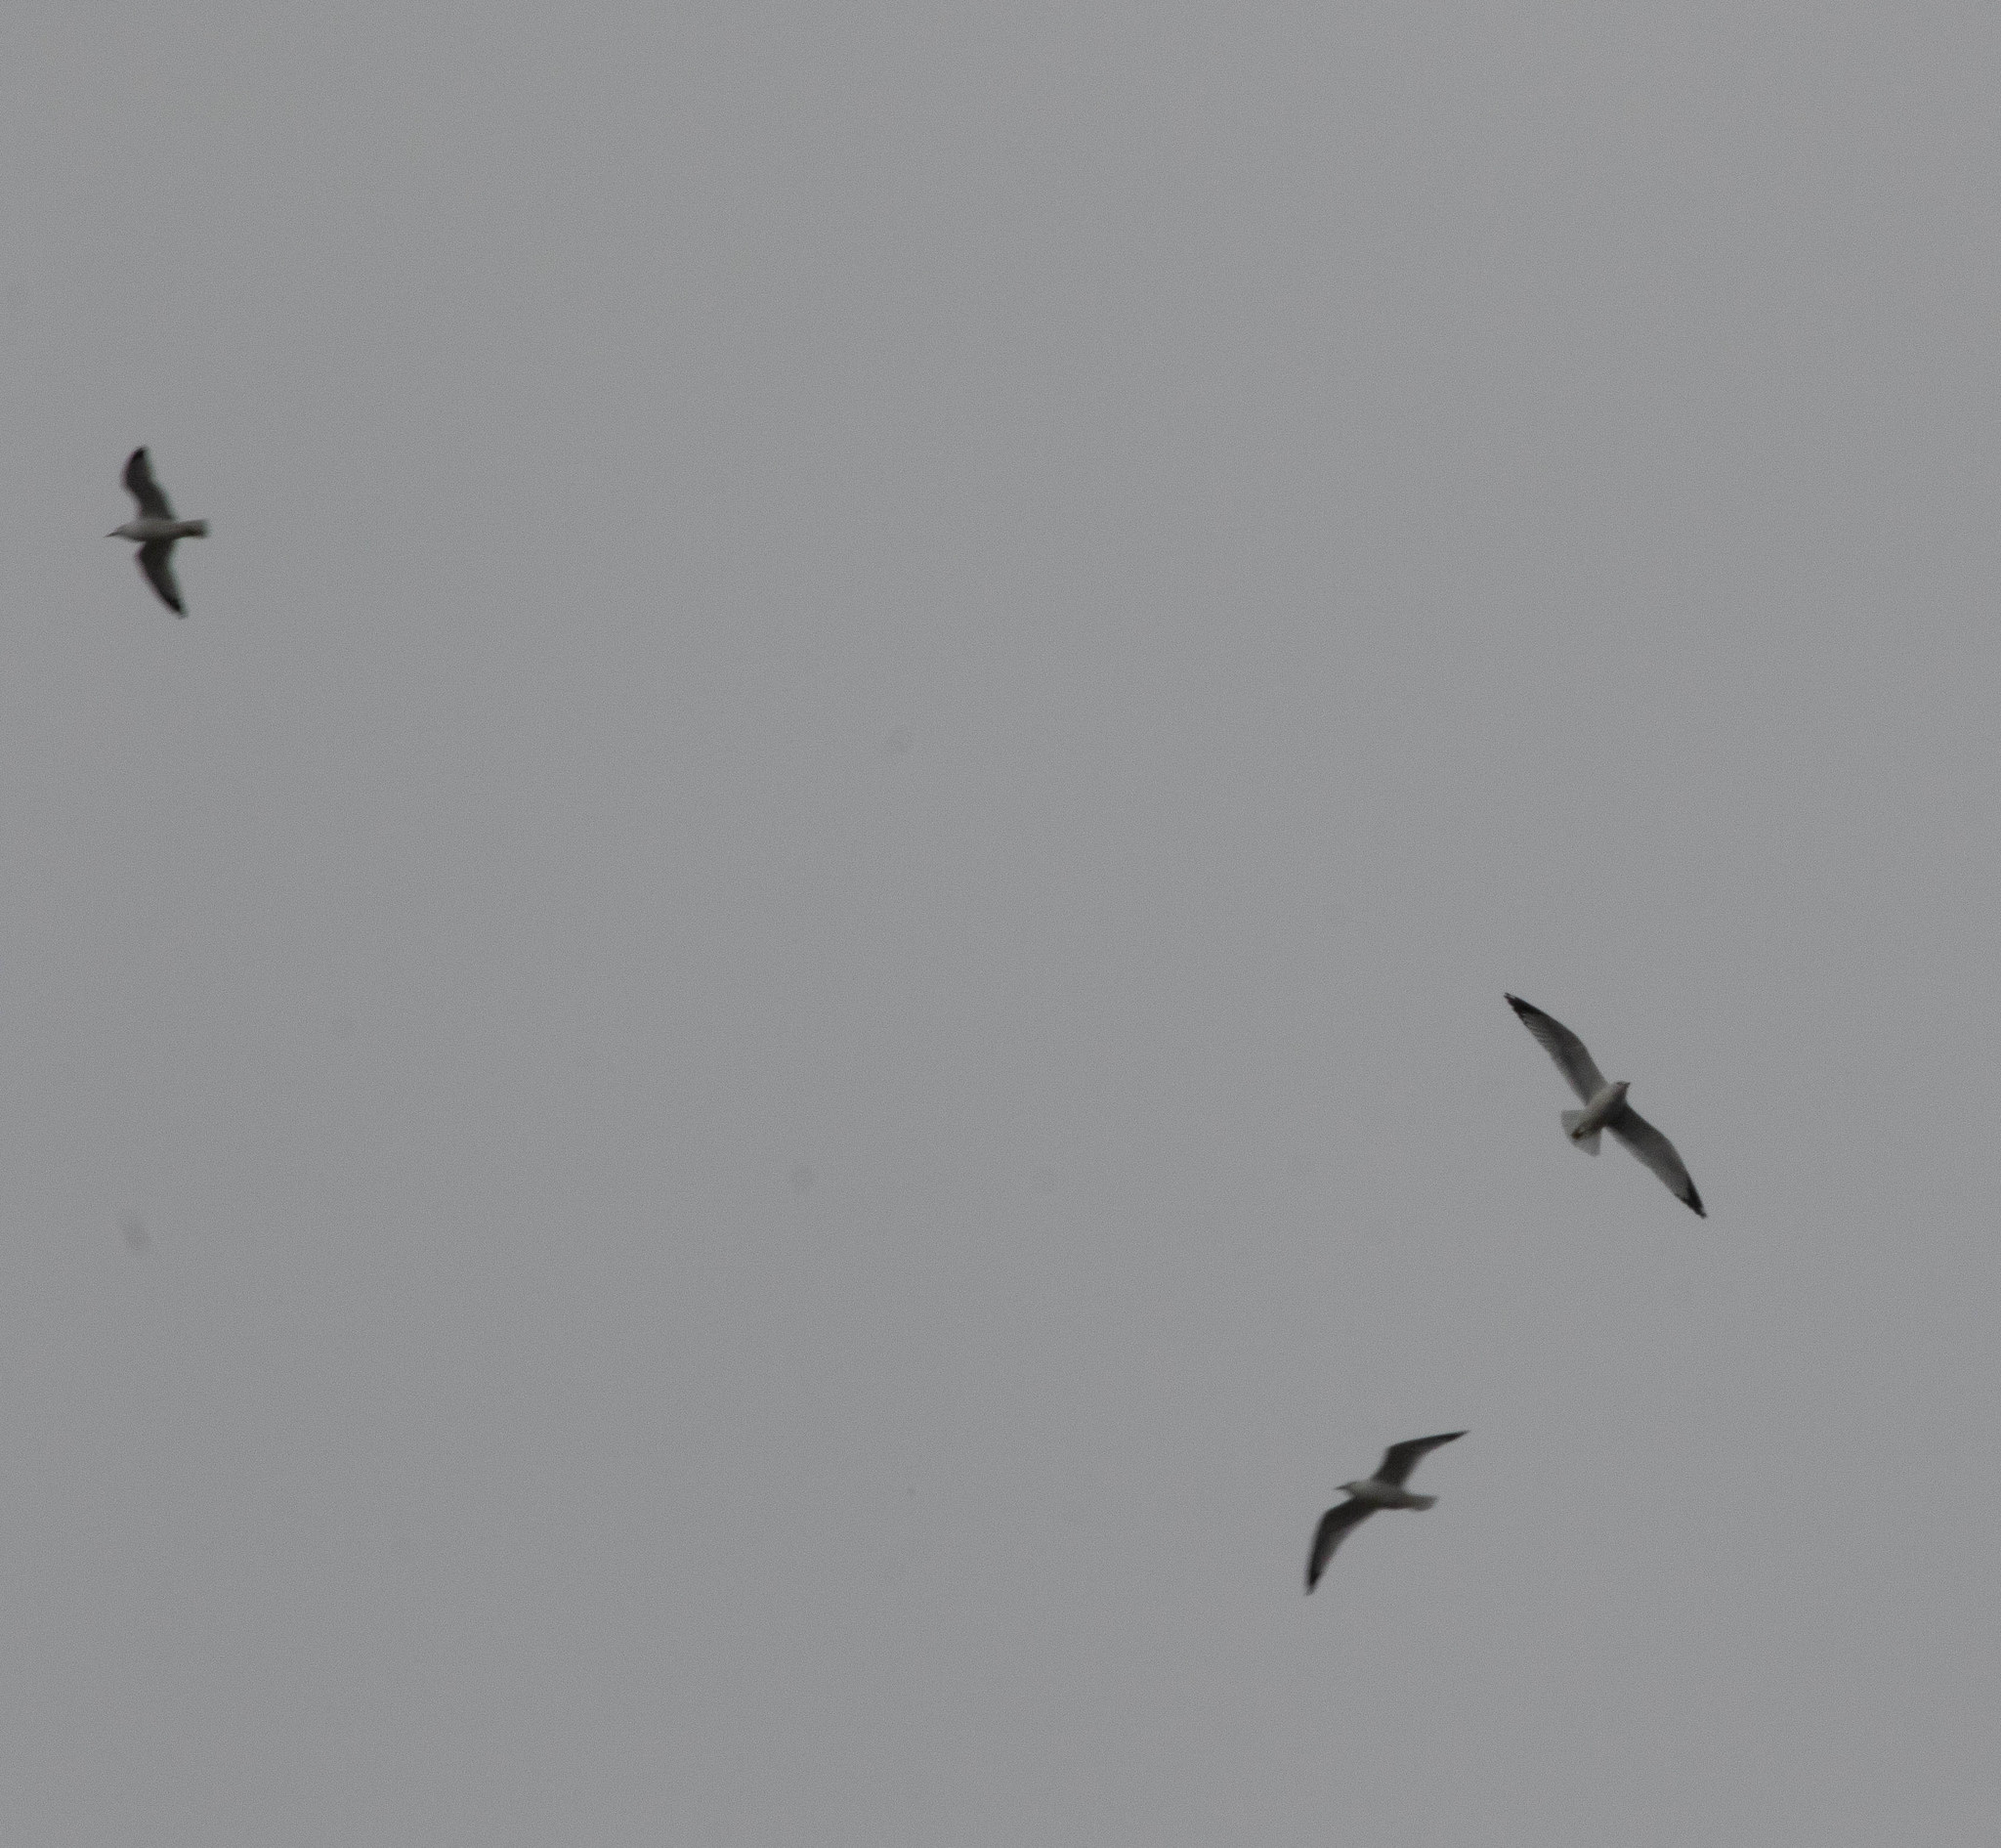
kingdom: Animalia
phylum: Chordata
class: Aves
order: Charadriiformes
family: Laridae
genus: Larus
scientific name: Larus delawarensis
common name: Ring-billed gull
